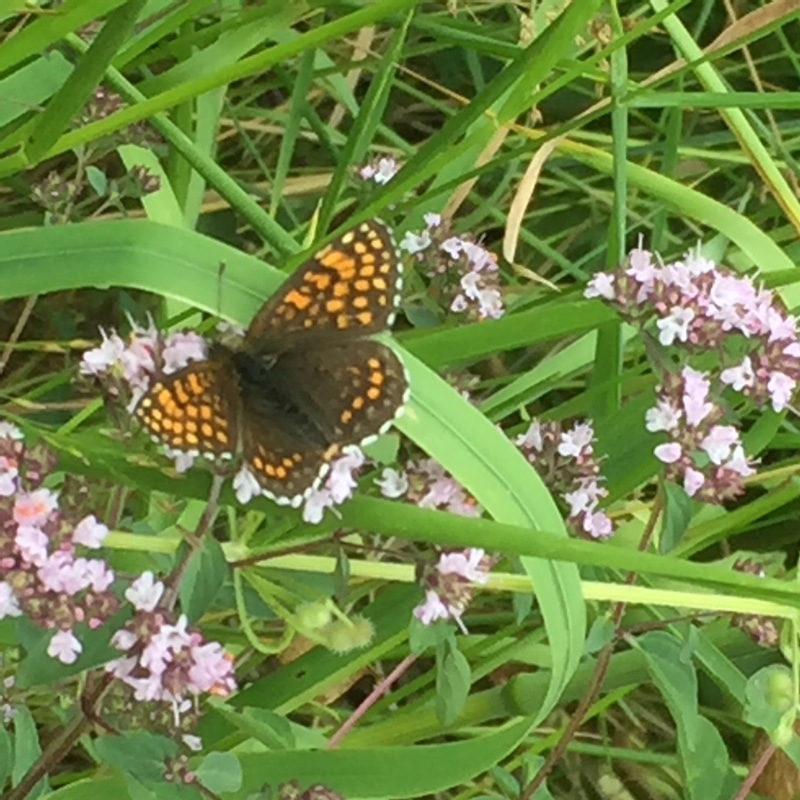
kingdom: Plantae
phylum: Tracheophyta
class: Magnoliopsida
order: Lamiales
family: Lamiaceae
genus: Origanum
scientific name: Origanum vulgare
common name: Wild marjoram
